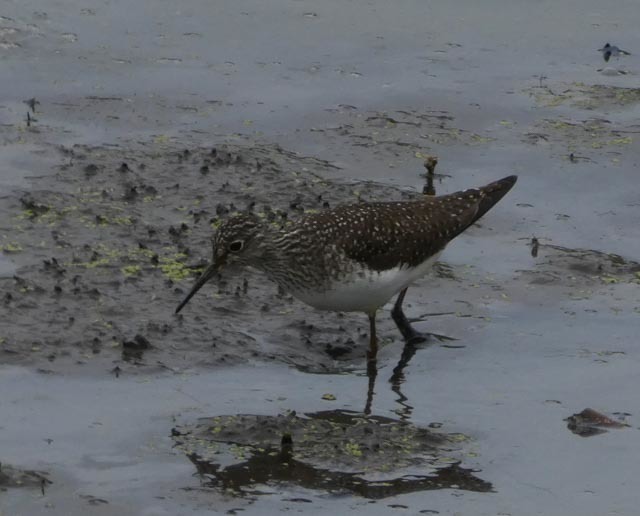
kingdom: Animalia
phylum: Chordata
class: Aves
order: Charadriiformes
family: Scolopacidae
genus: Tringa
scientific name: Tringa solitaria
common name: Solitary sandpiper
